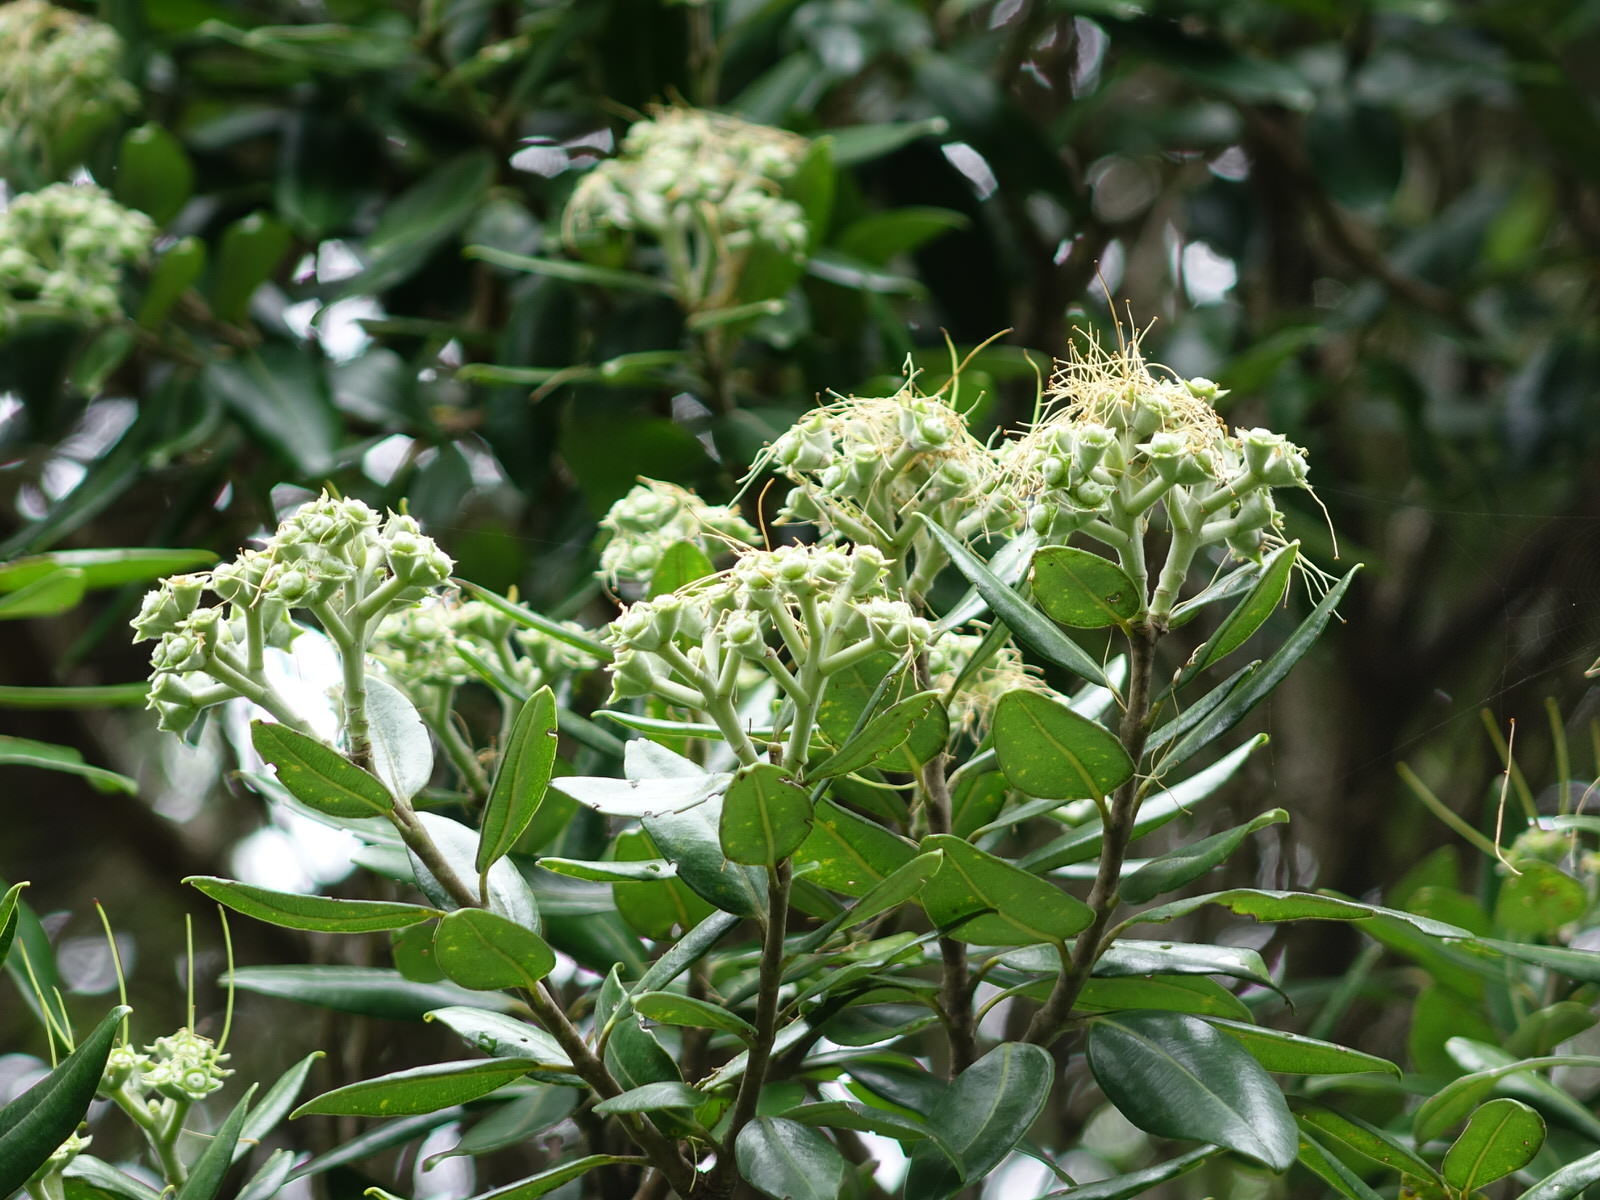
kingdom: Plantae
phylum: Tracheophyta
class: Magnoliopsida
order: Myrtales
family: Myrtaceae
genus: Metrosideros
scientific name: Metrosideros excelsa
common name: New zealand christmastree
